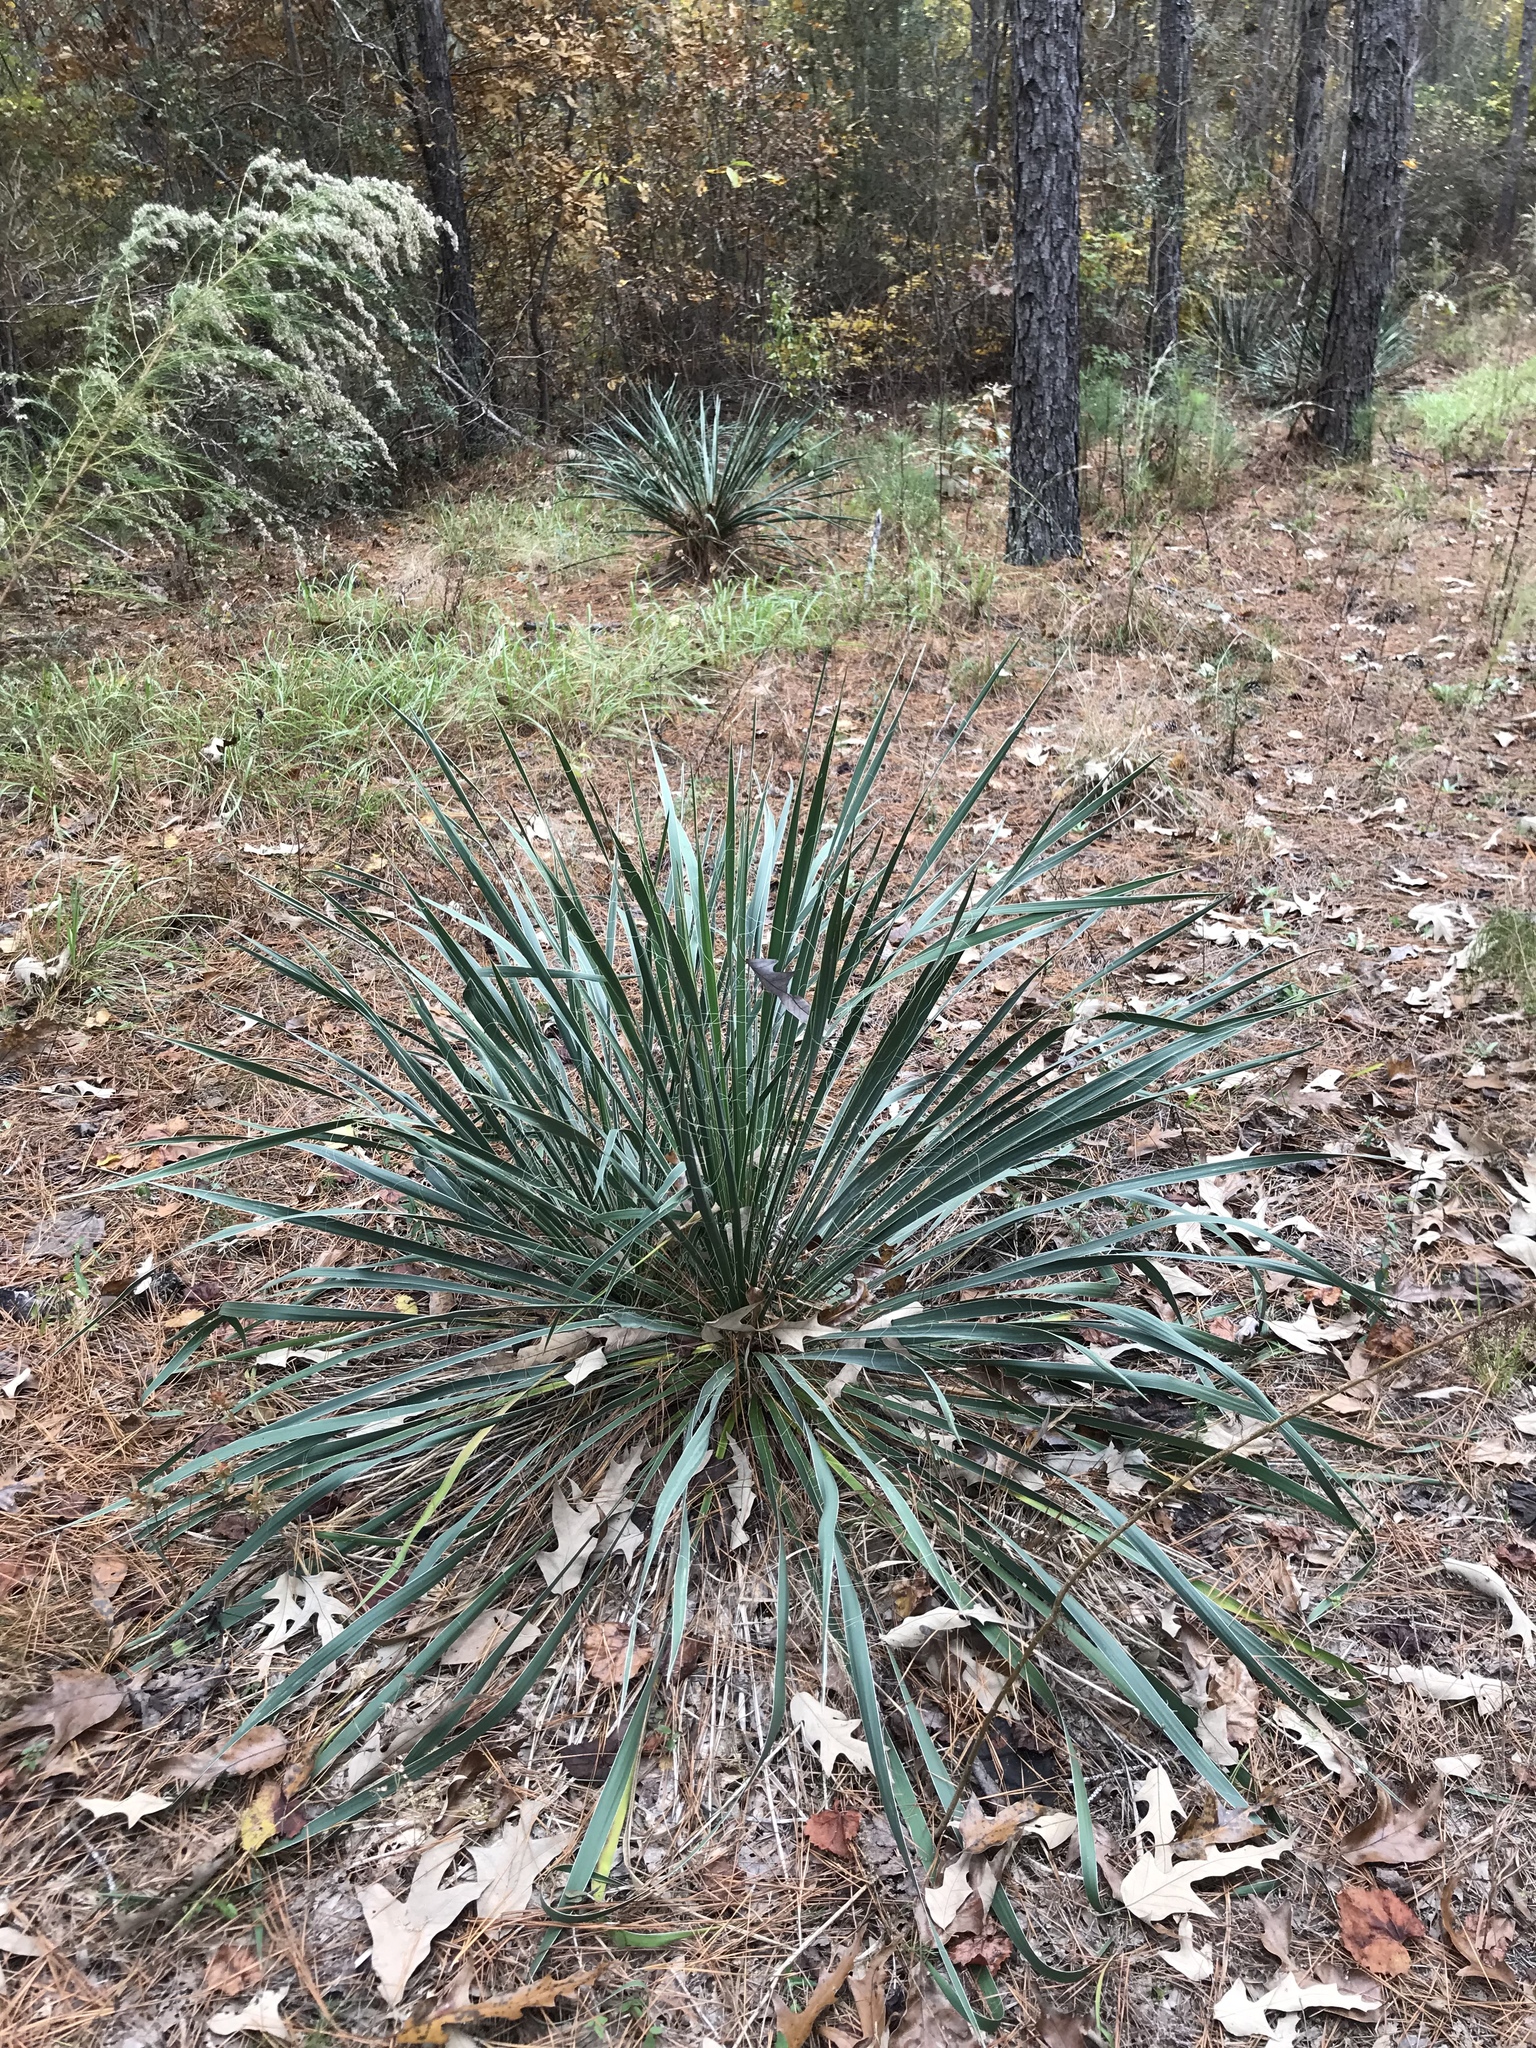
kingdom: Plantae
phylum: Tracheophyta
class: Liliopsida
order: Asparagales
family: Asparagaceae
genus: Yucca
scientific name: Yucca flaccida
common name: Adam's-needle
